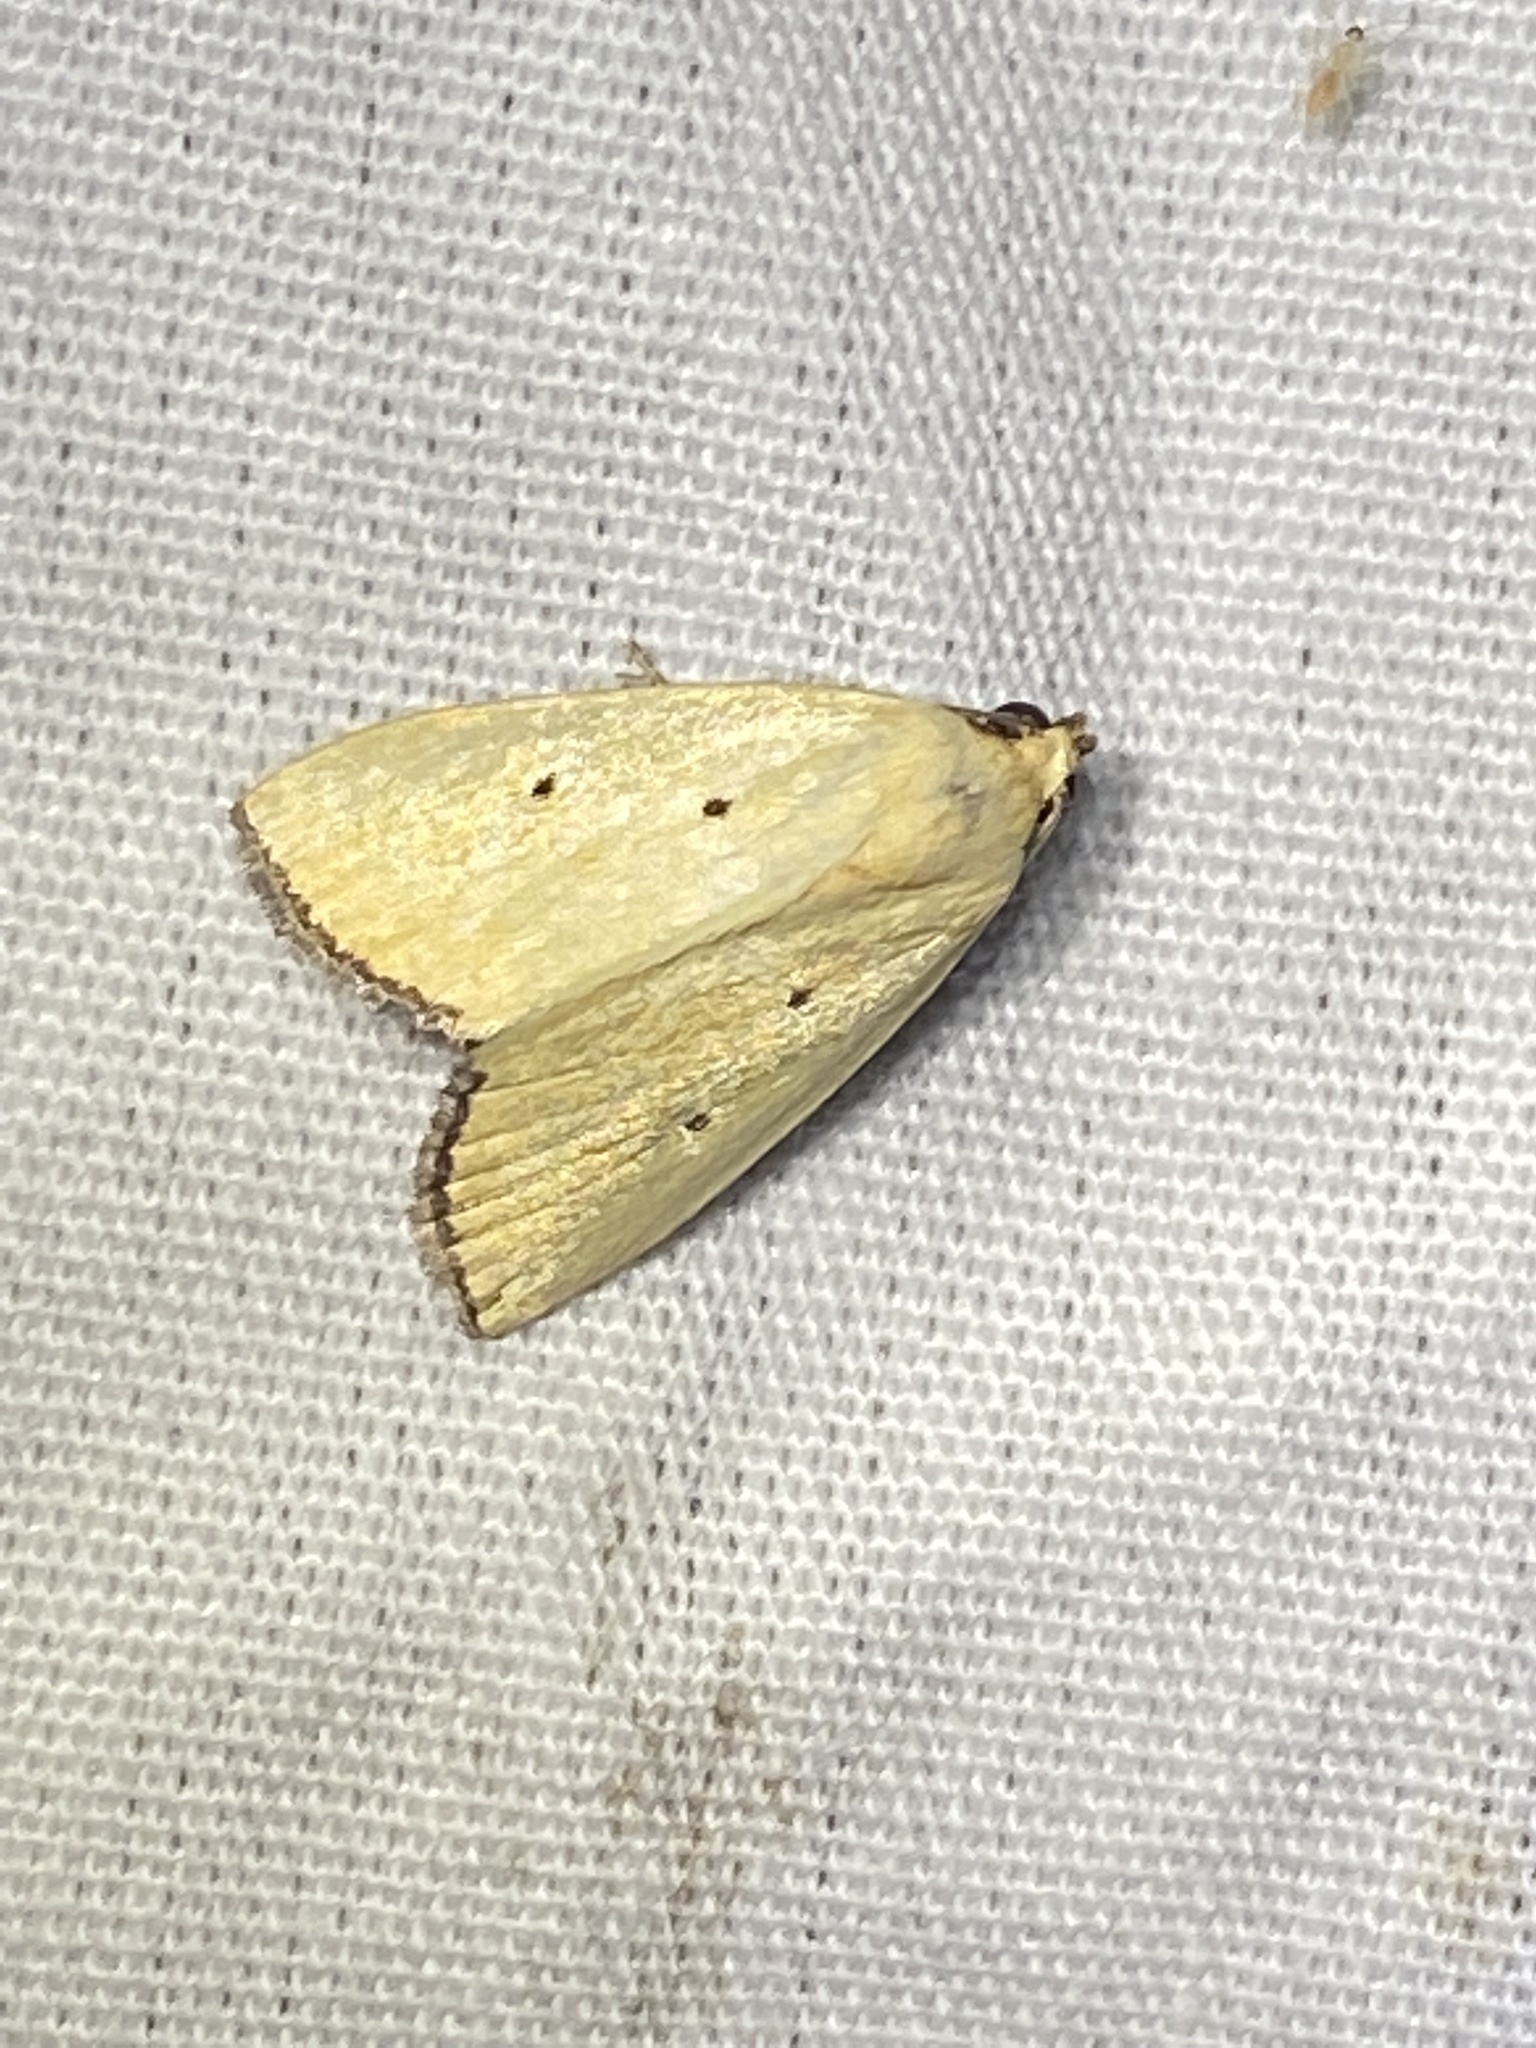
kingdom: Animalia
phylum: Arthropoda
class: Insecta
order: Lepidoptera
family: Noctuidae
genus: Marimatha
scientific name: Marimatha nigrofimbria
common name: Black-bordered lemon moth
